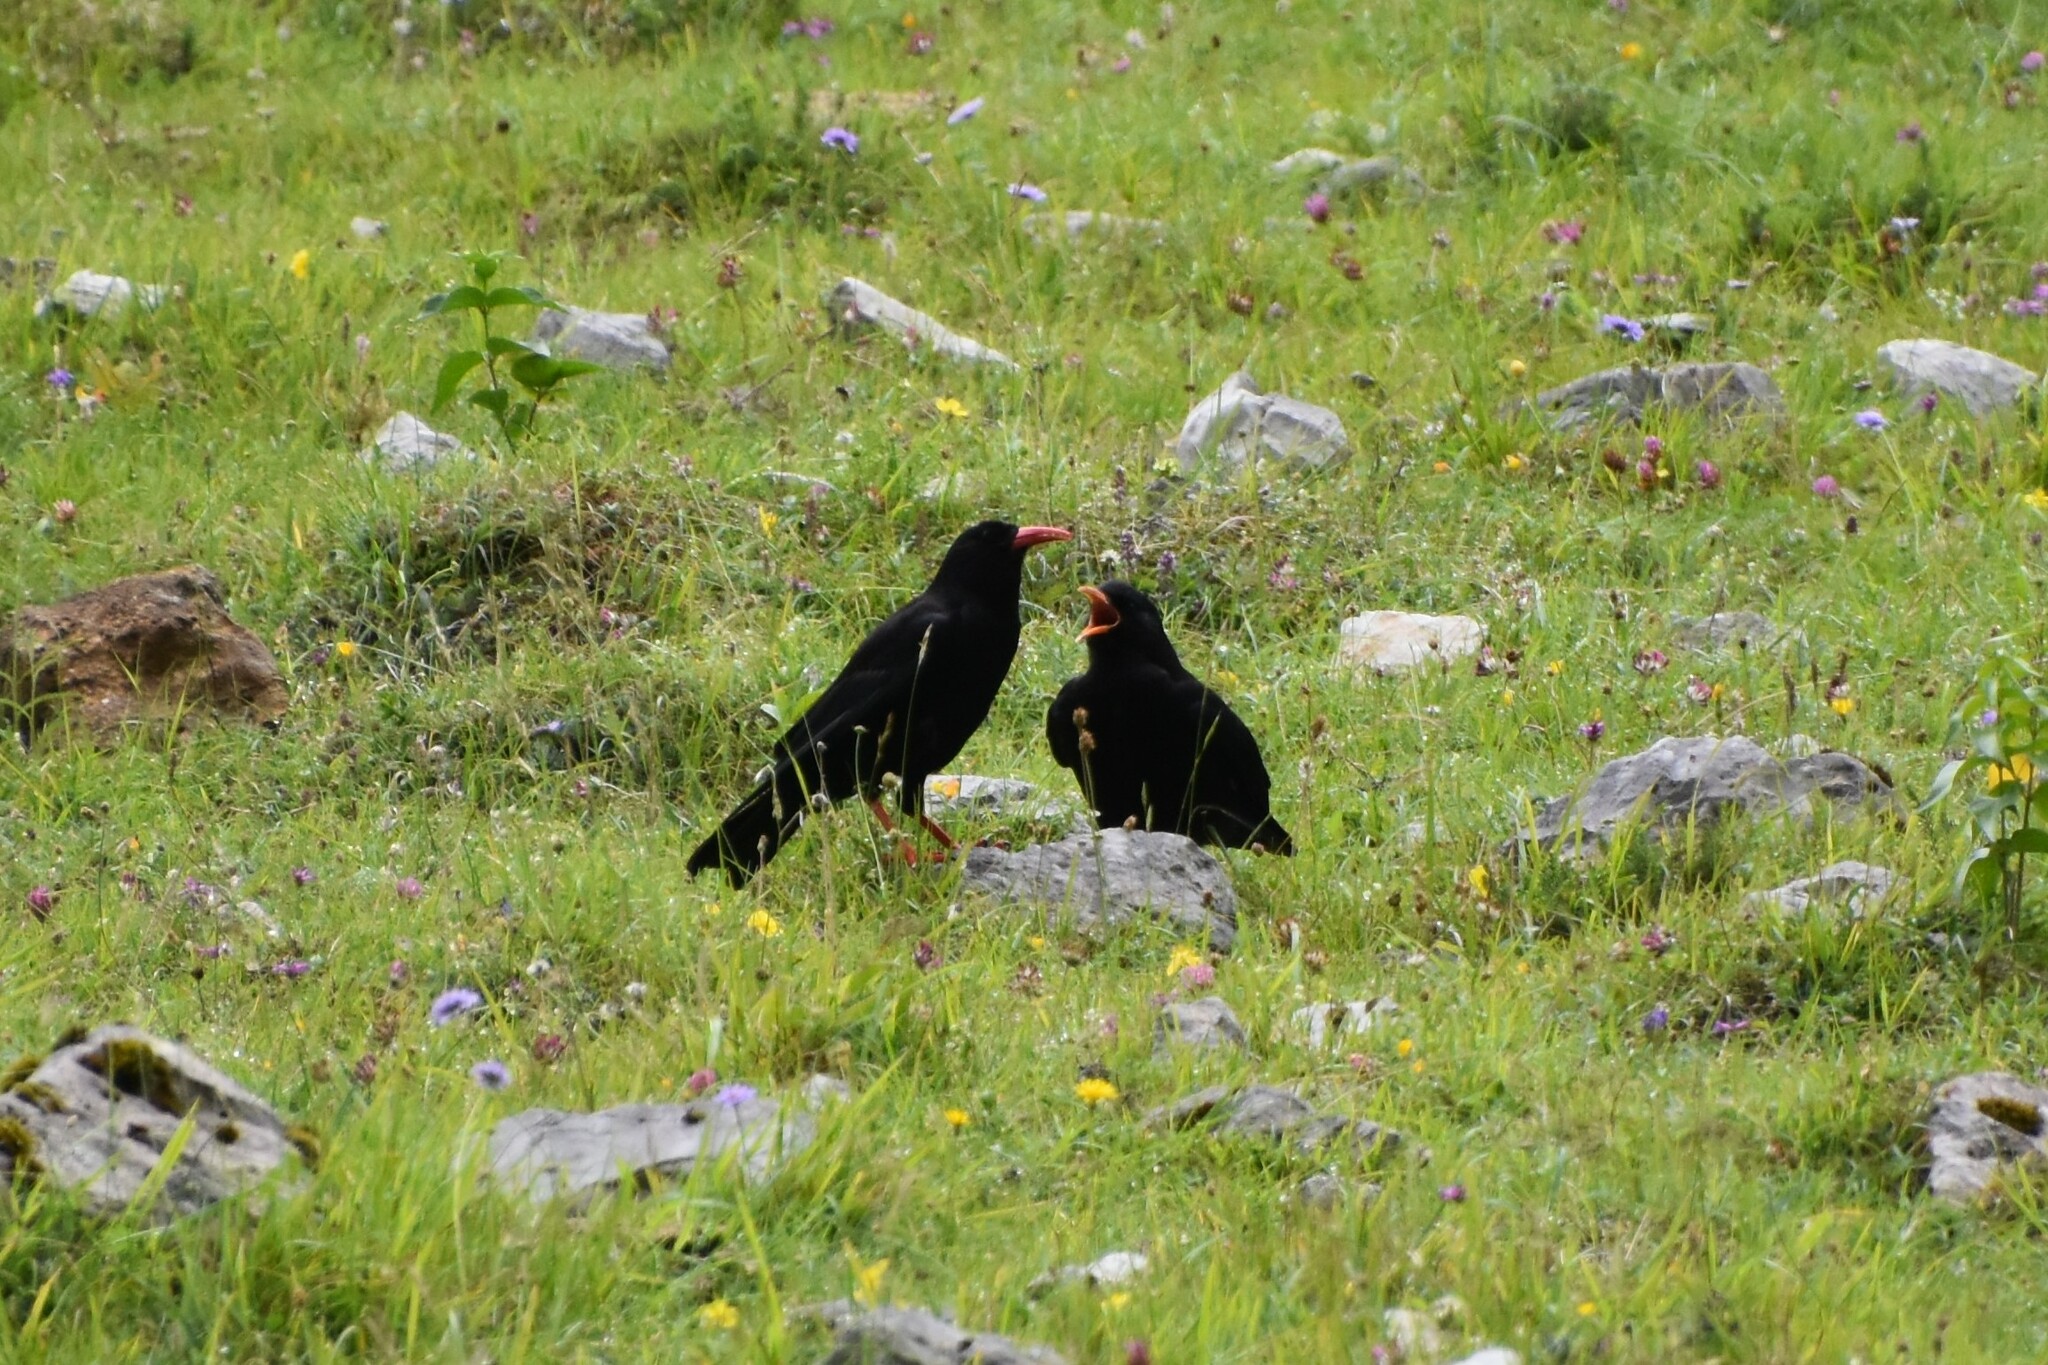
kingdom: Animalia
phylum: Chordata
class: Aves
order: Passeriformes
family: Corvidae
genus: Pyrrhocorax
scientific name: Pyrrhocorax pyrrhocorax
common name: Red-billed chough
